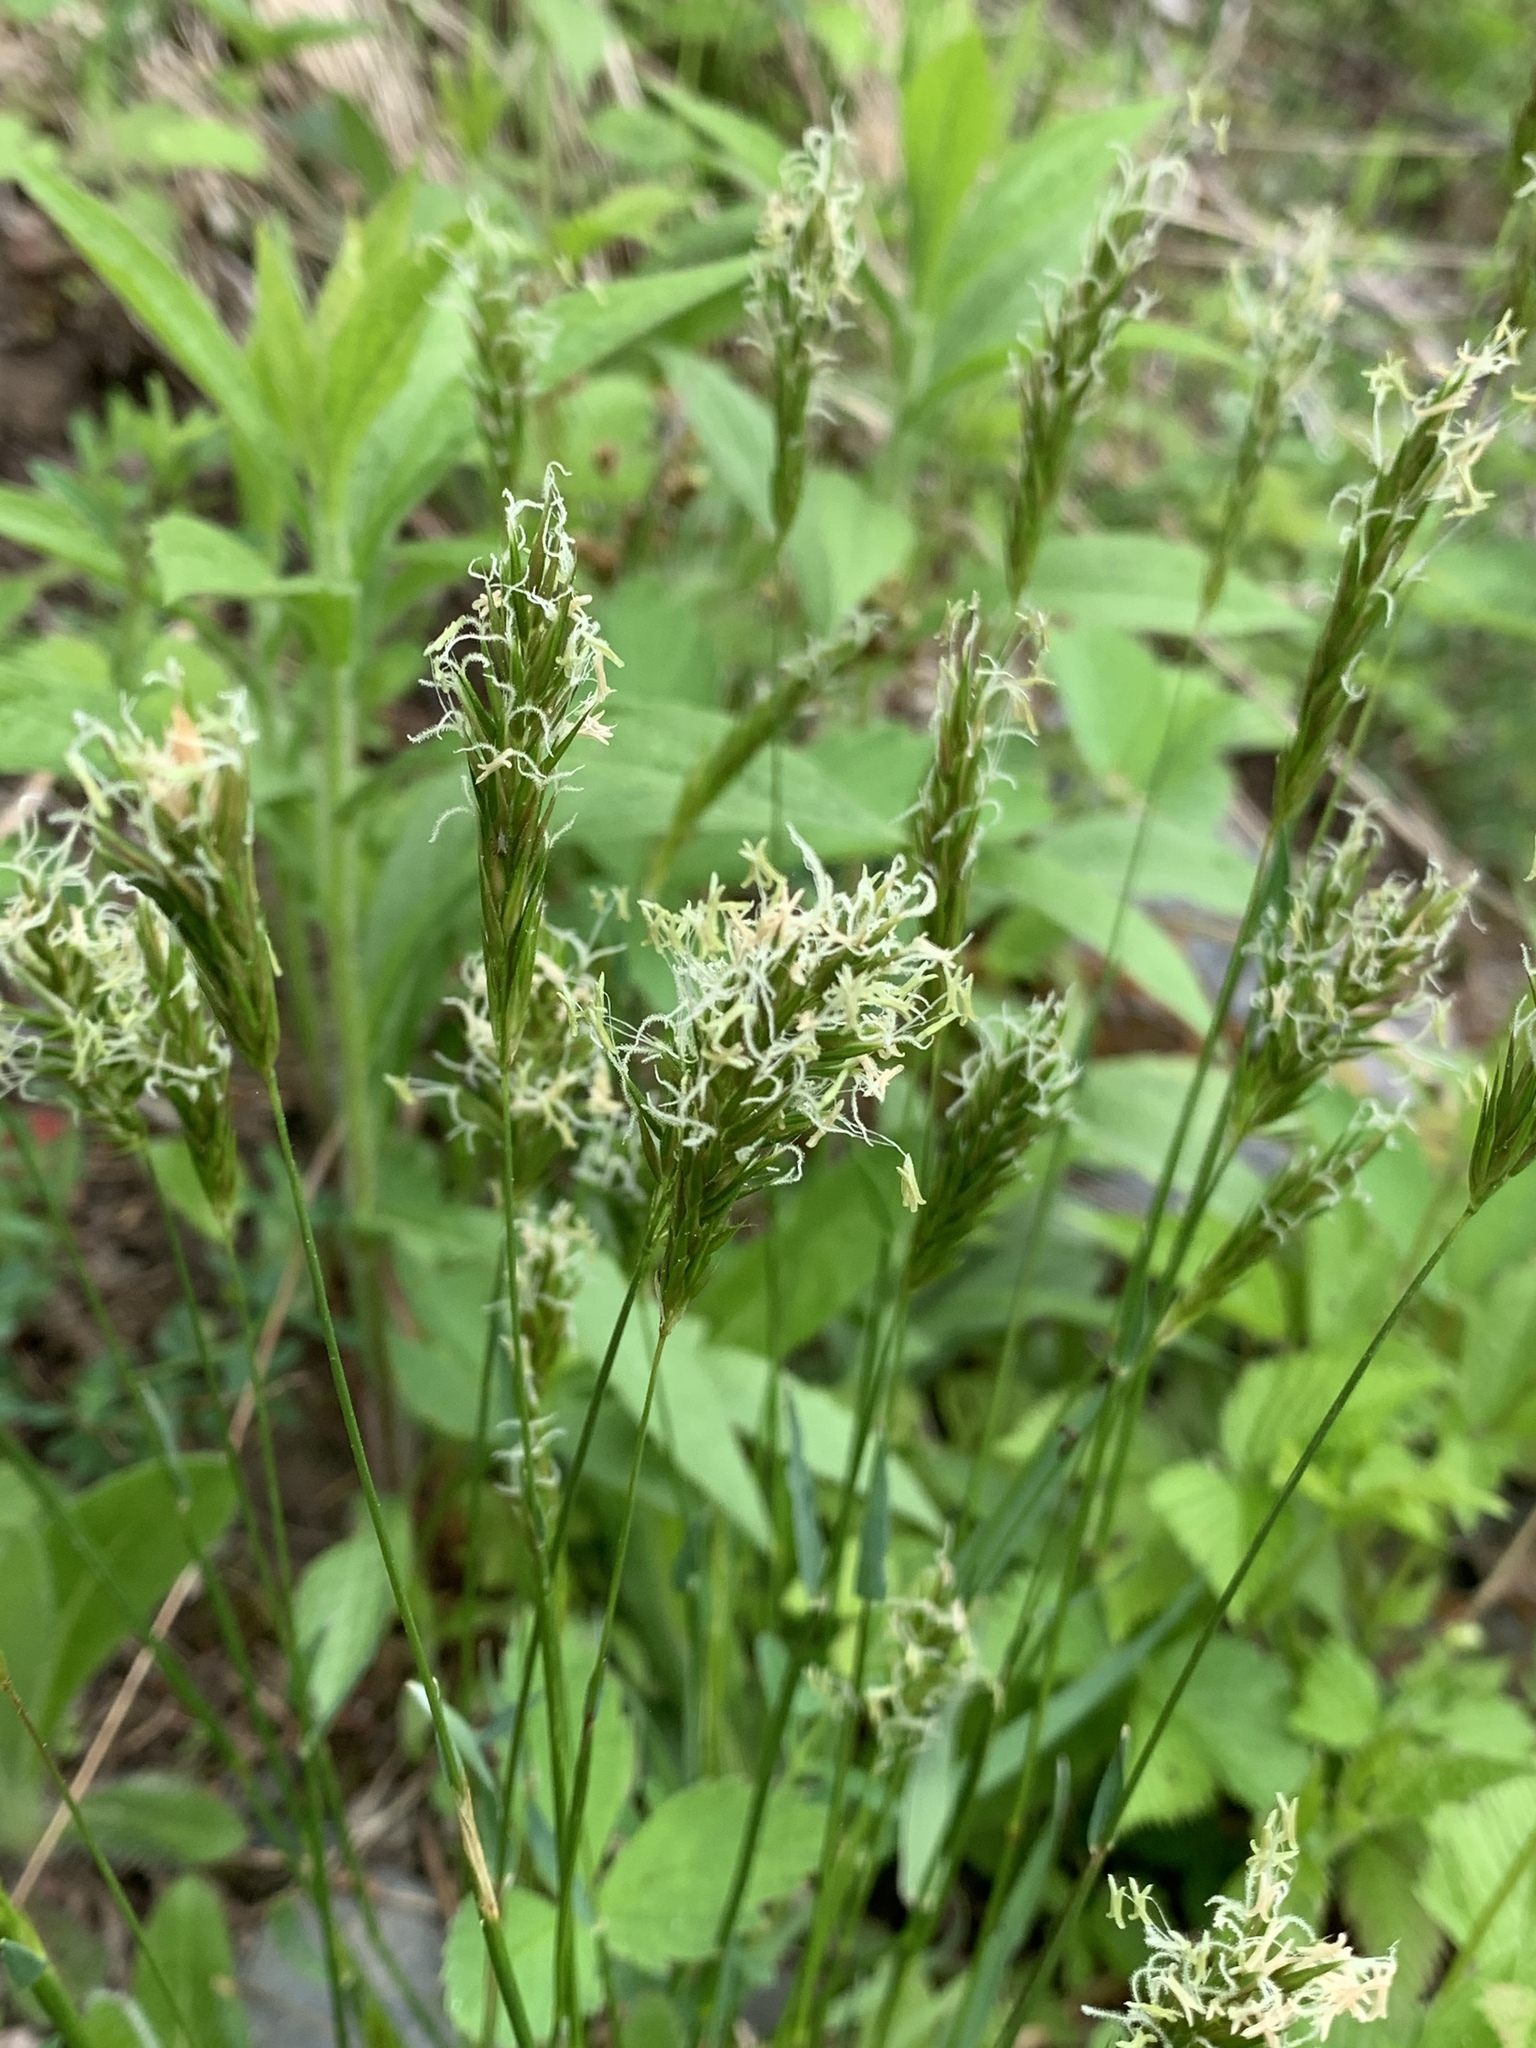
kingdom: Plantae
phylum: Tracheophyta
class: Liliopsida
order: Poales
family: Poaceae
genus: Anthoxanthum
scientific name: Anthoxanthum odoratum
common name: Sweet vernalgrass
